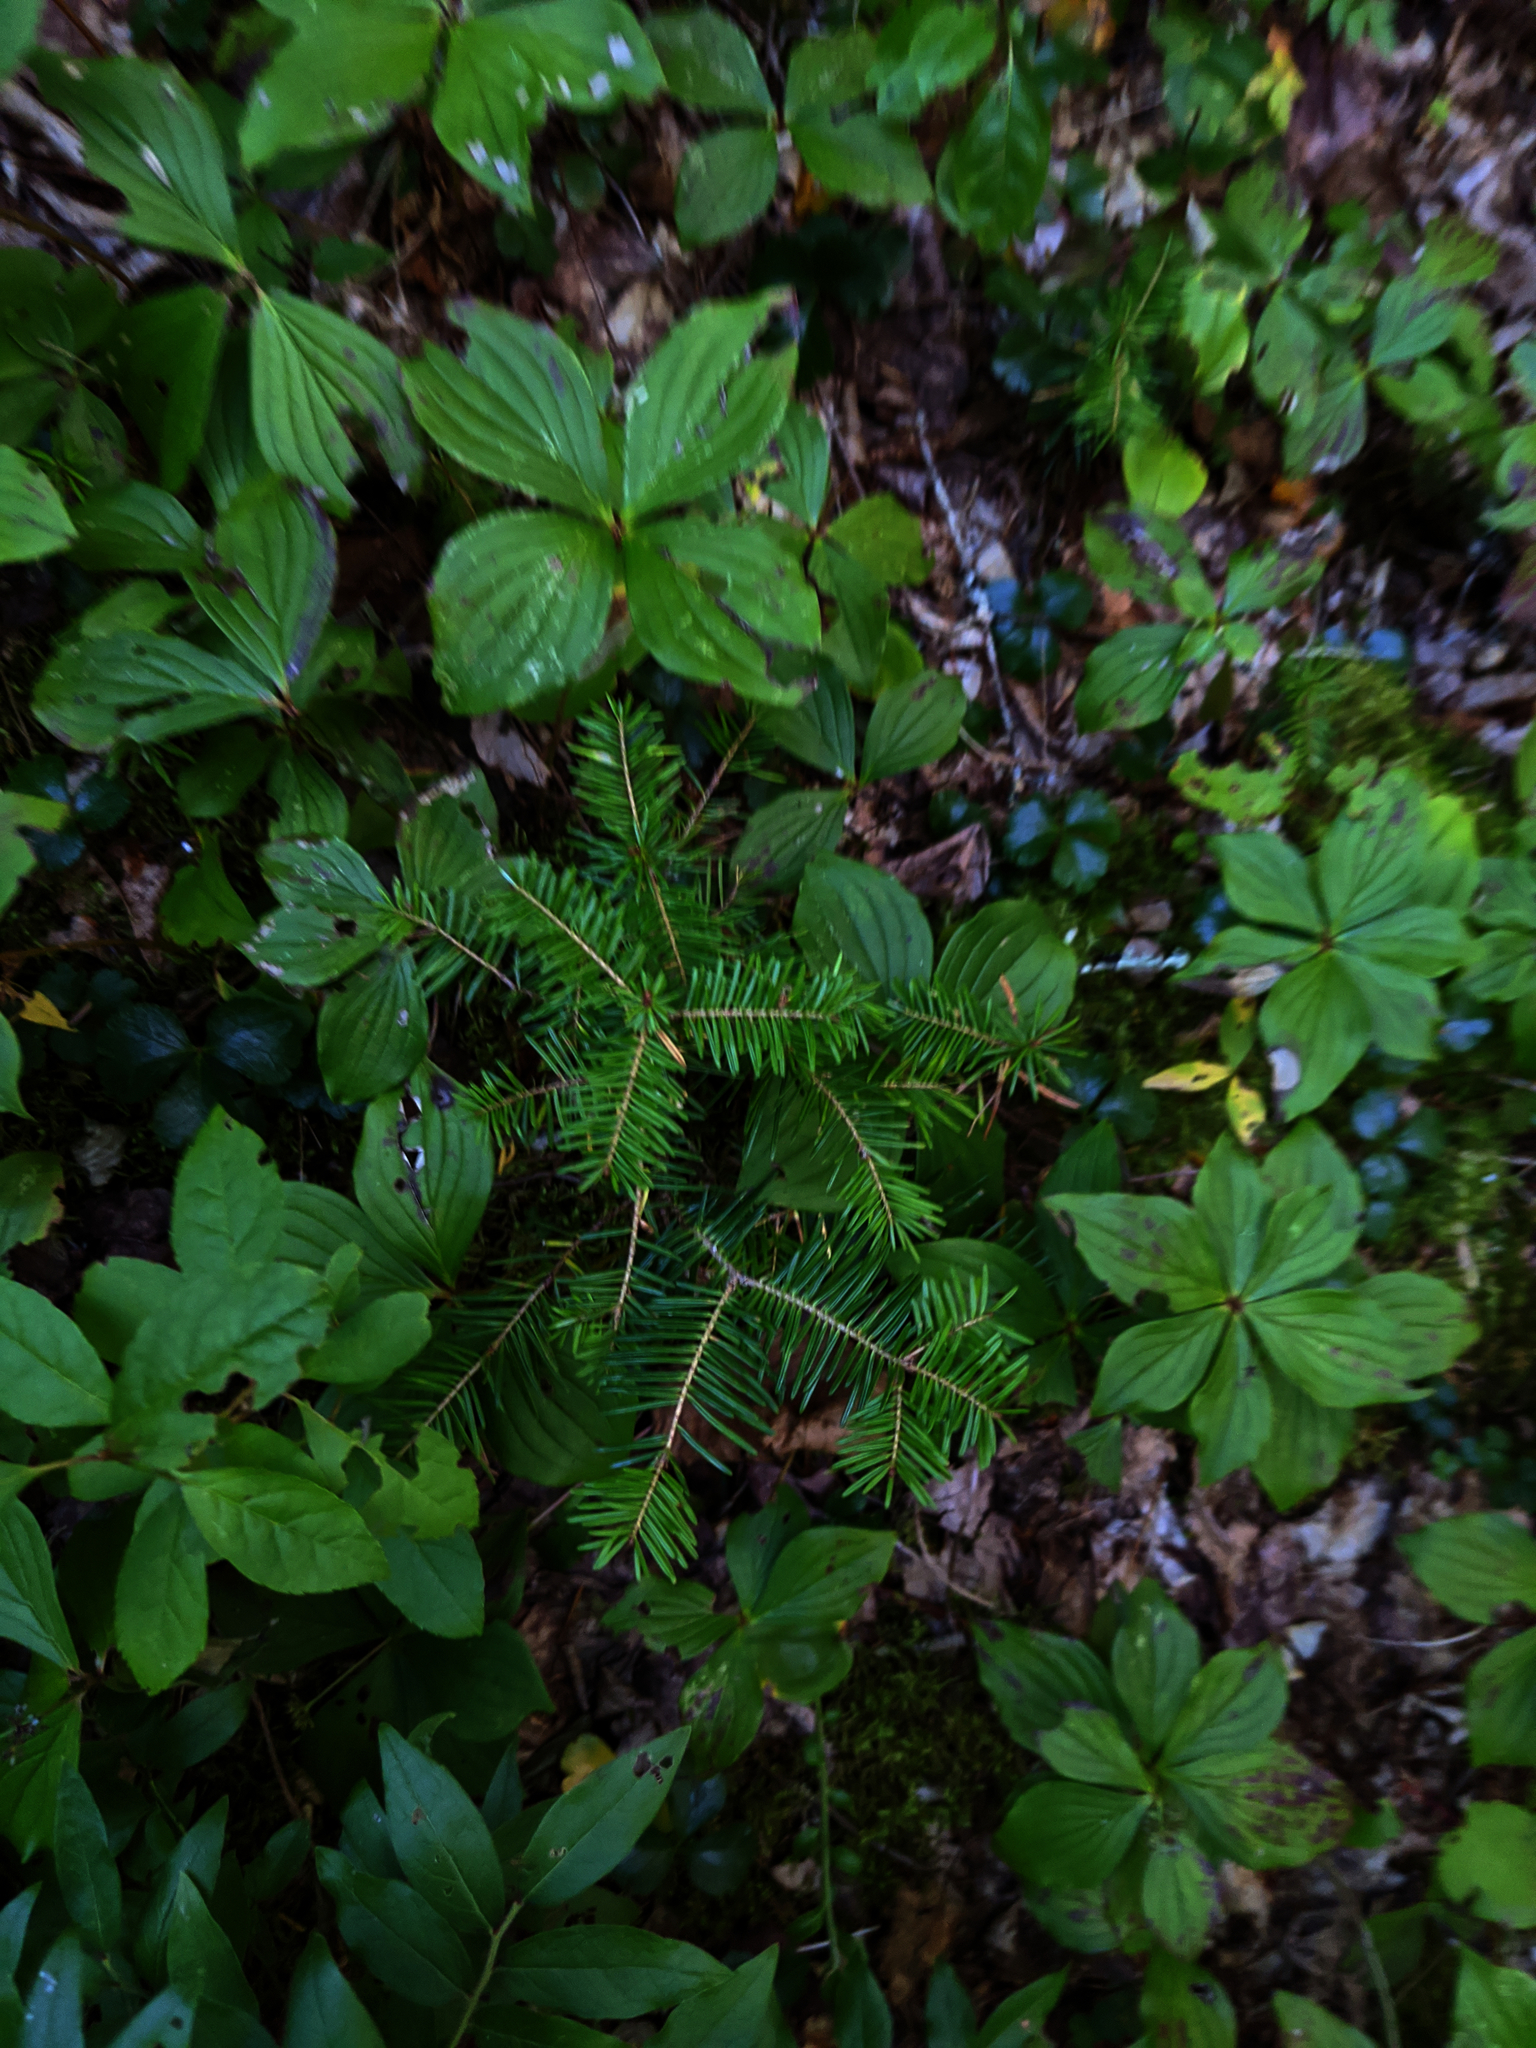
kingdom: Plantae
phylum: Tracheophyta
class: Magnoliopsida
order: Cornales
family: Cornaceae
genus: Cornus
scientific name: Cornus canadensis
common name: Creeping dogwood
